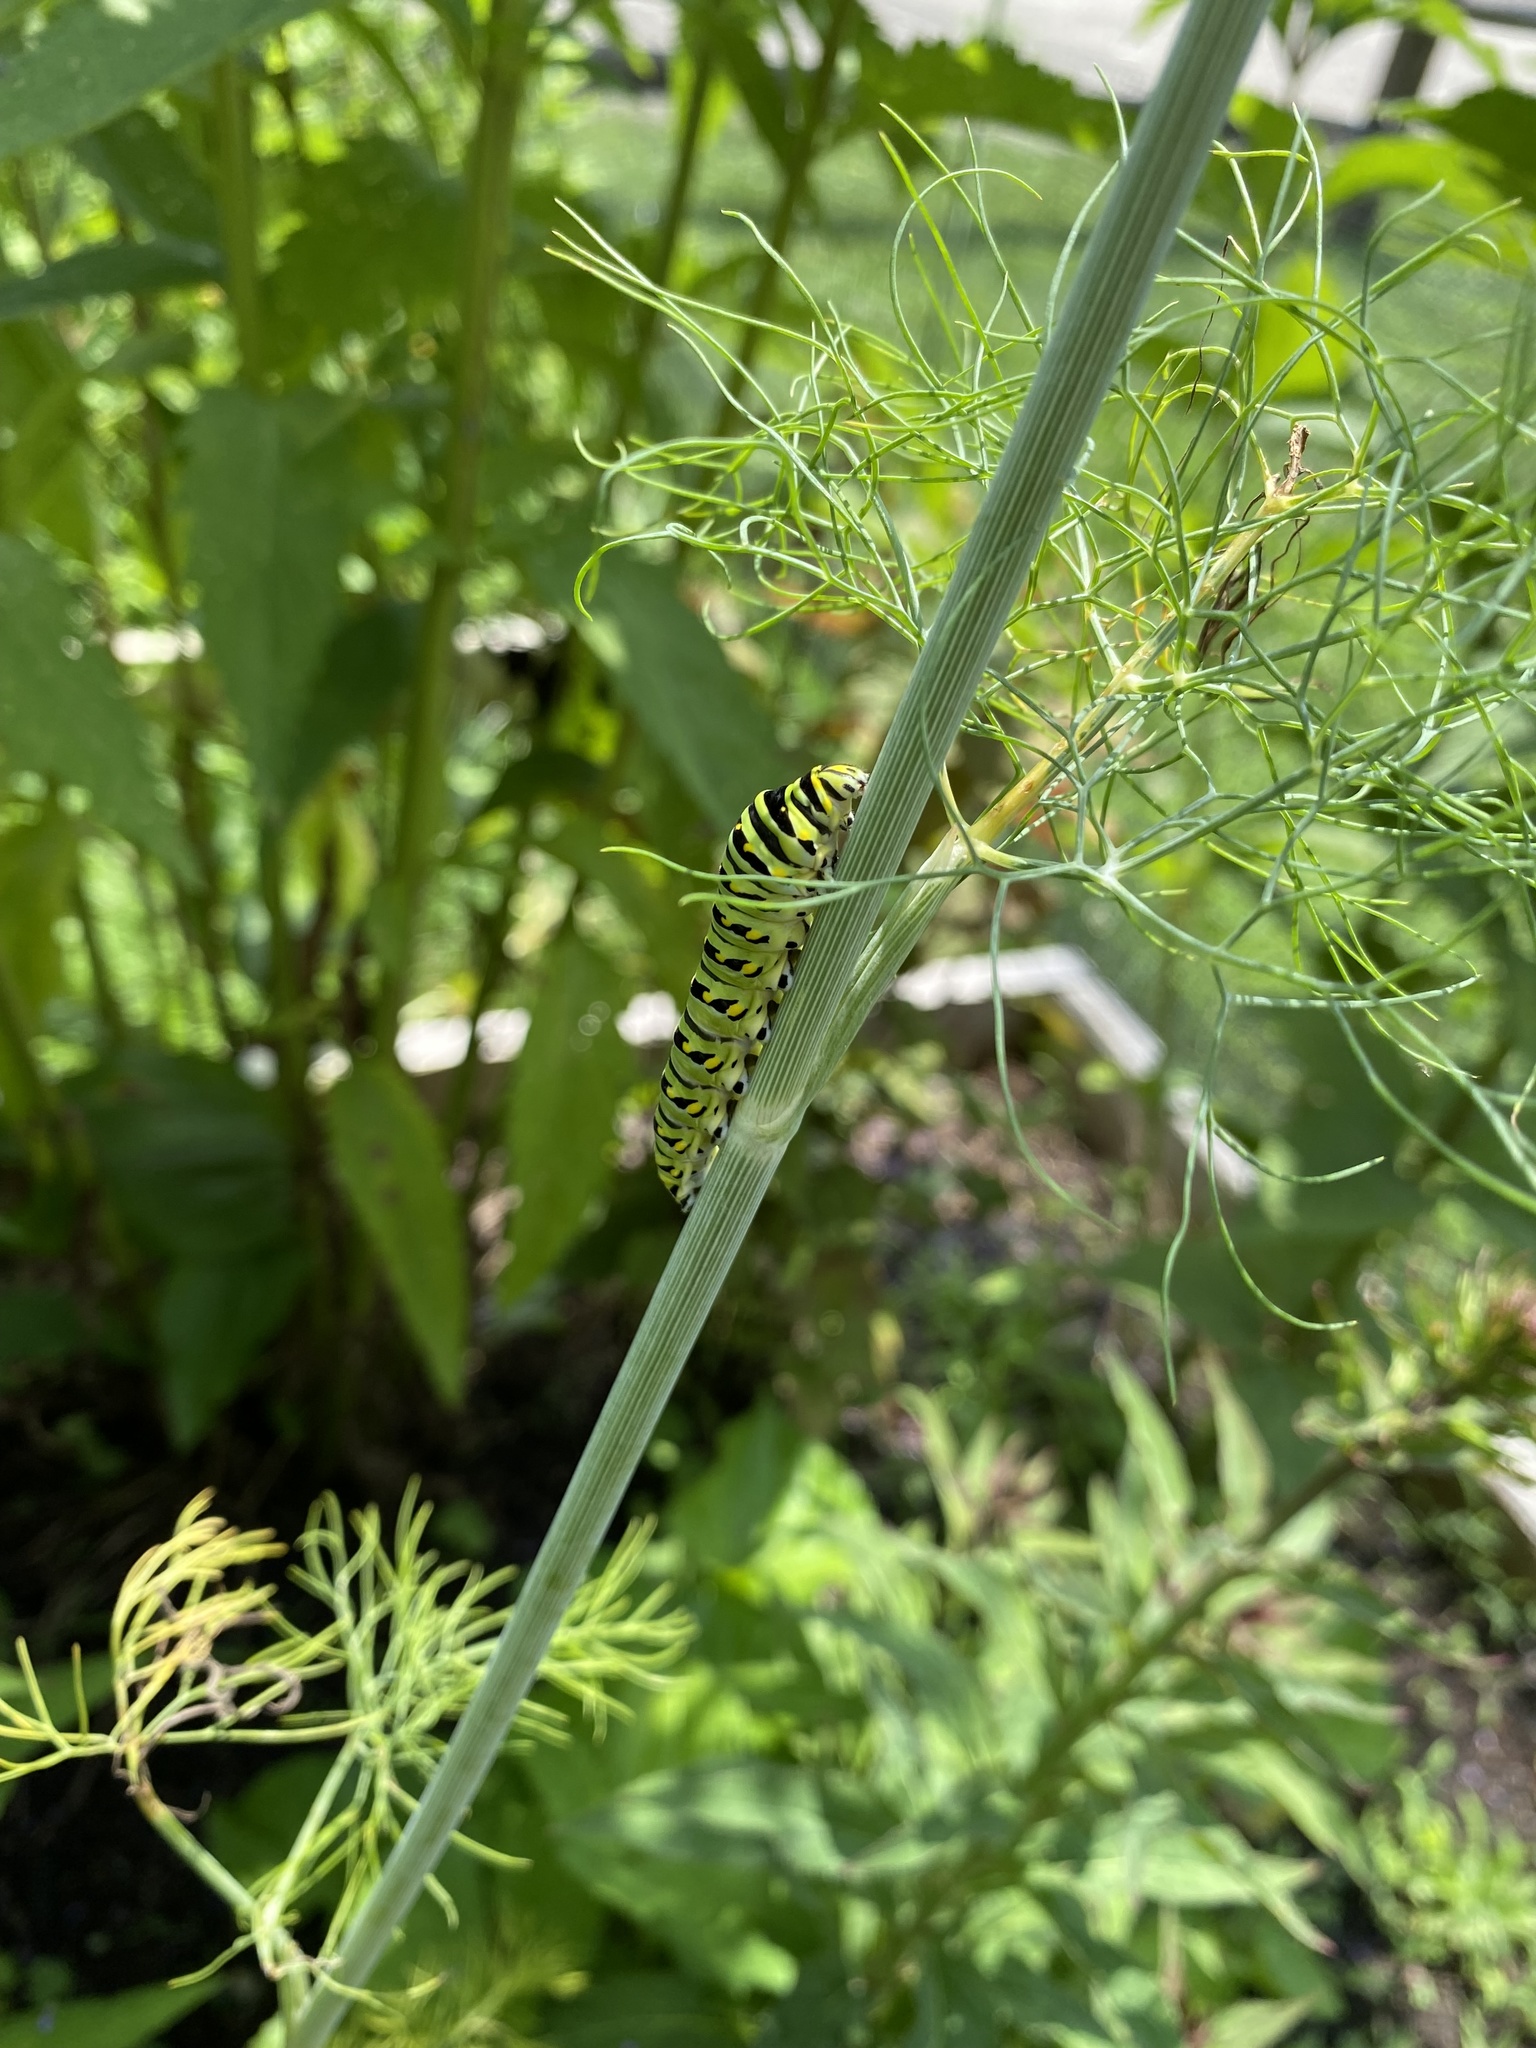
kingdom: Animalia
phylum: Arthropoda
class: Insecta
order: Lepidoptera
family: Papilionidae
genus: Papilio
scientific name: Papilio polyxenes
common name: Black swallowtail
